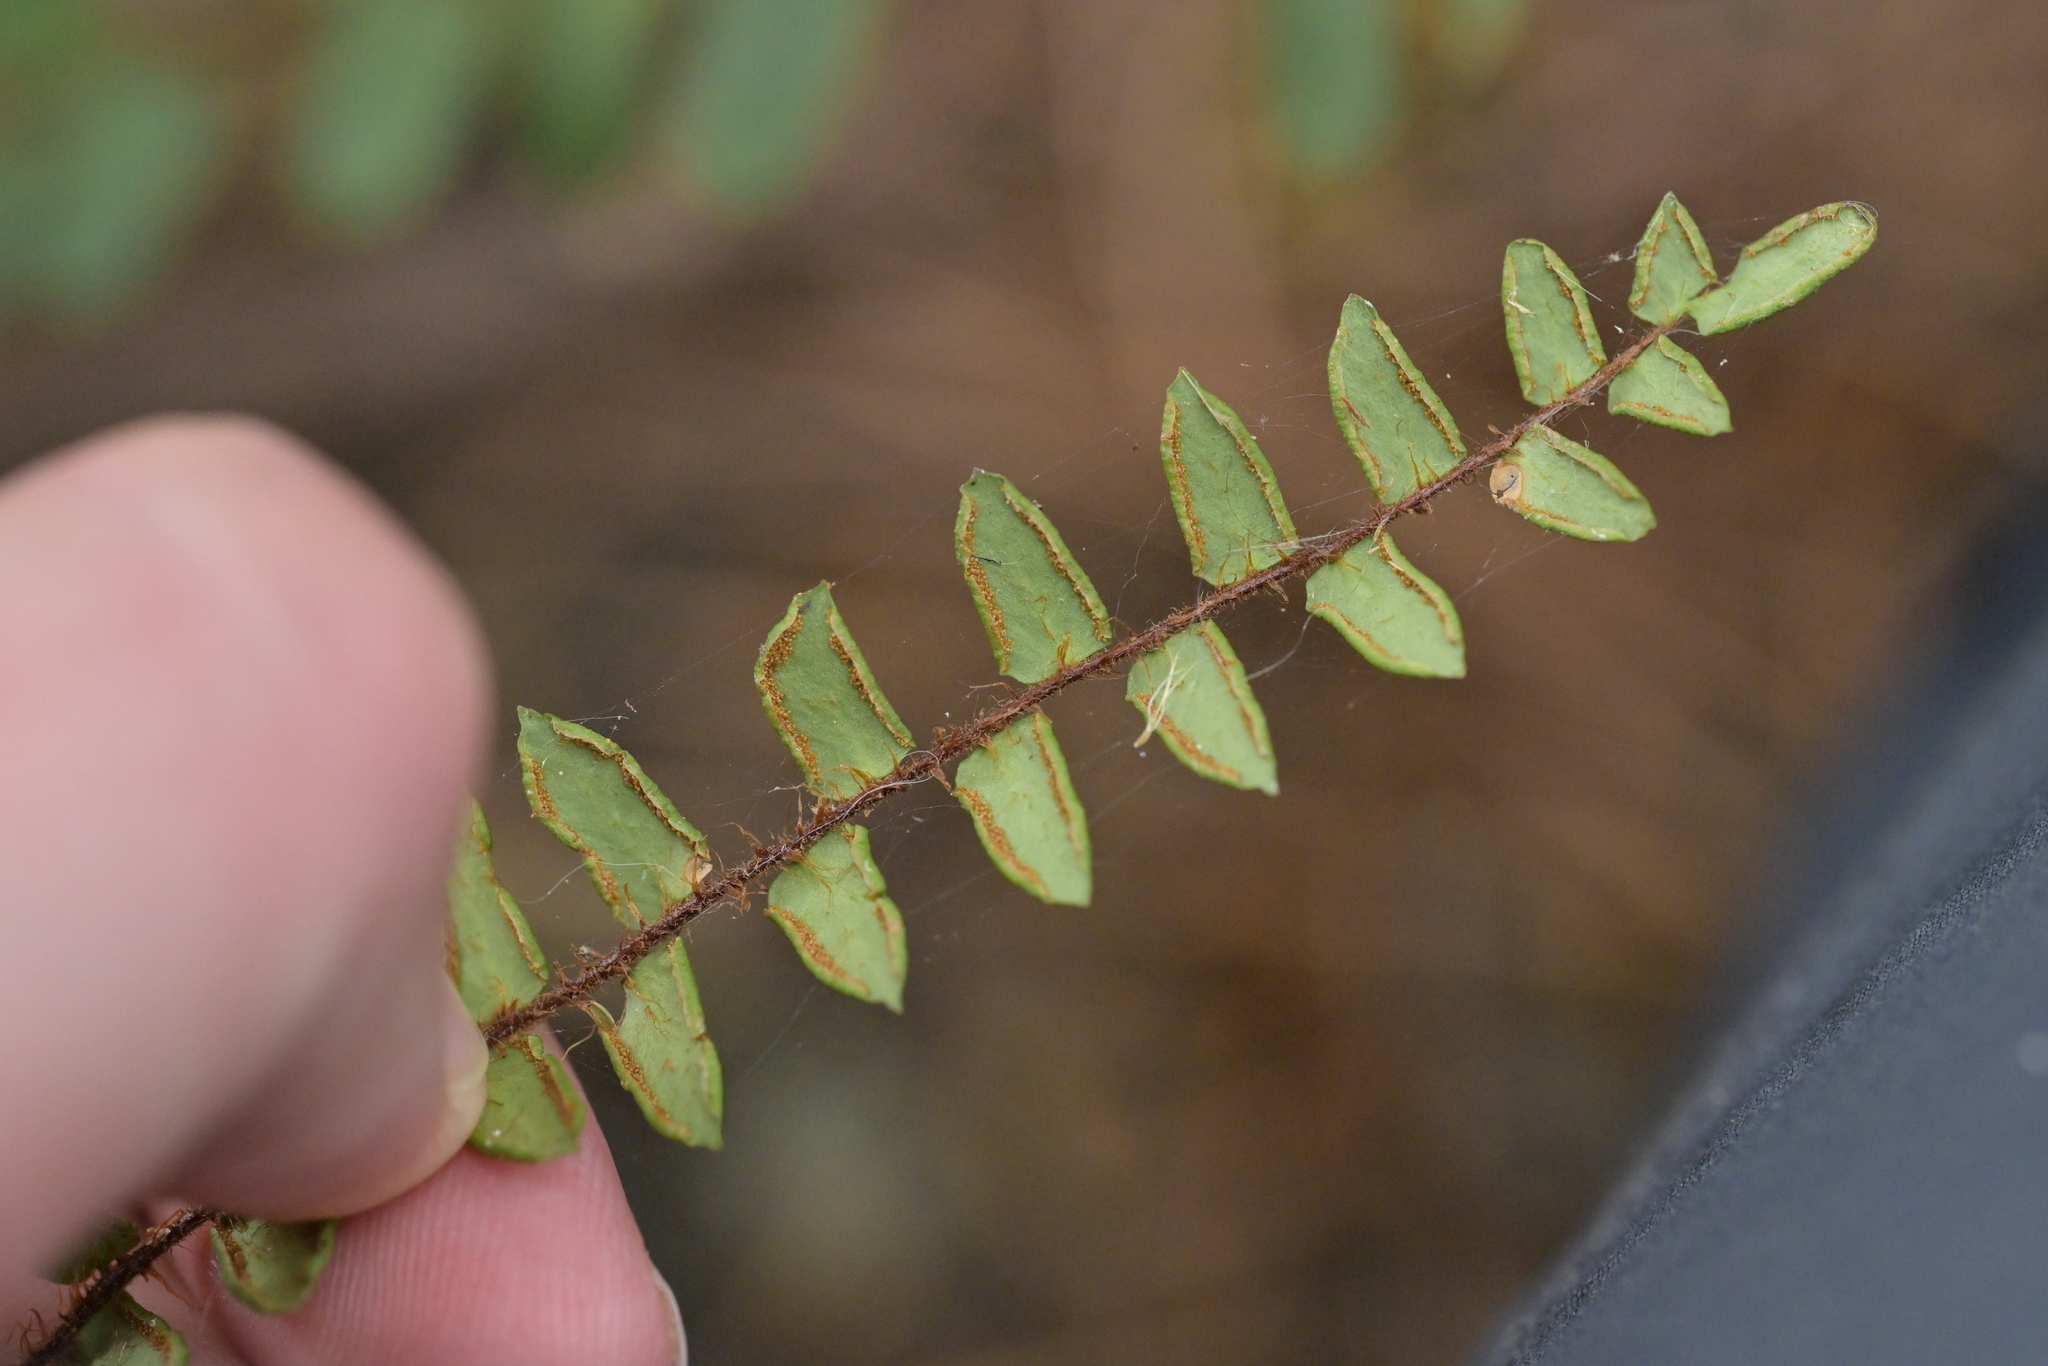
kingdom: Plantae
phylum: Tracheophyta
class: Polypodiopsida
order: Polypodiales
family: Pteridaceae
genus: Pellaea
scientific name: Pellaea rotundifolia
